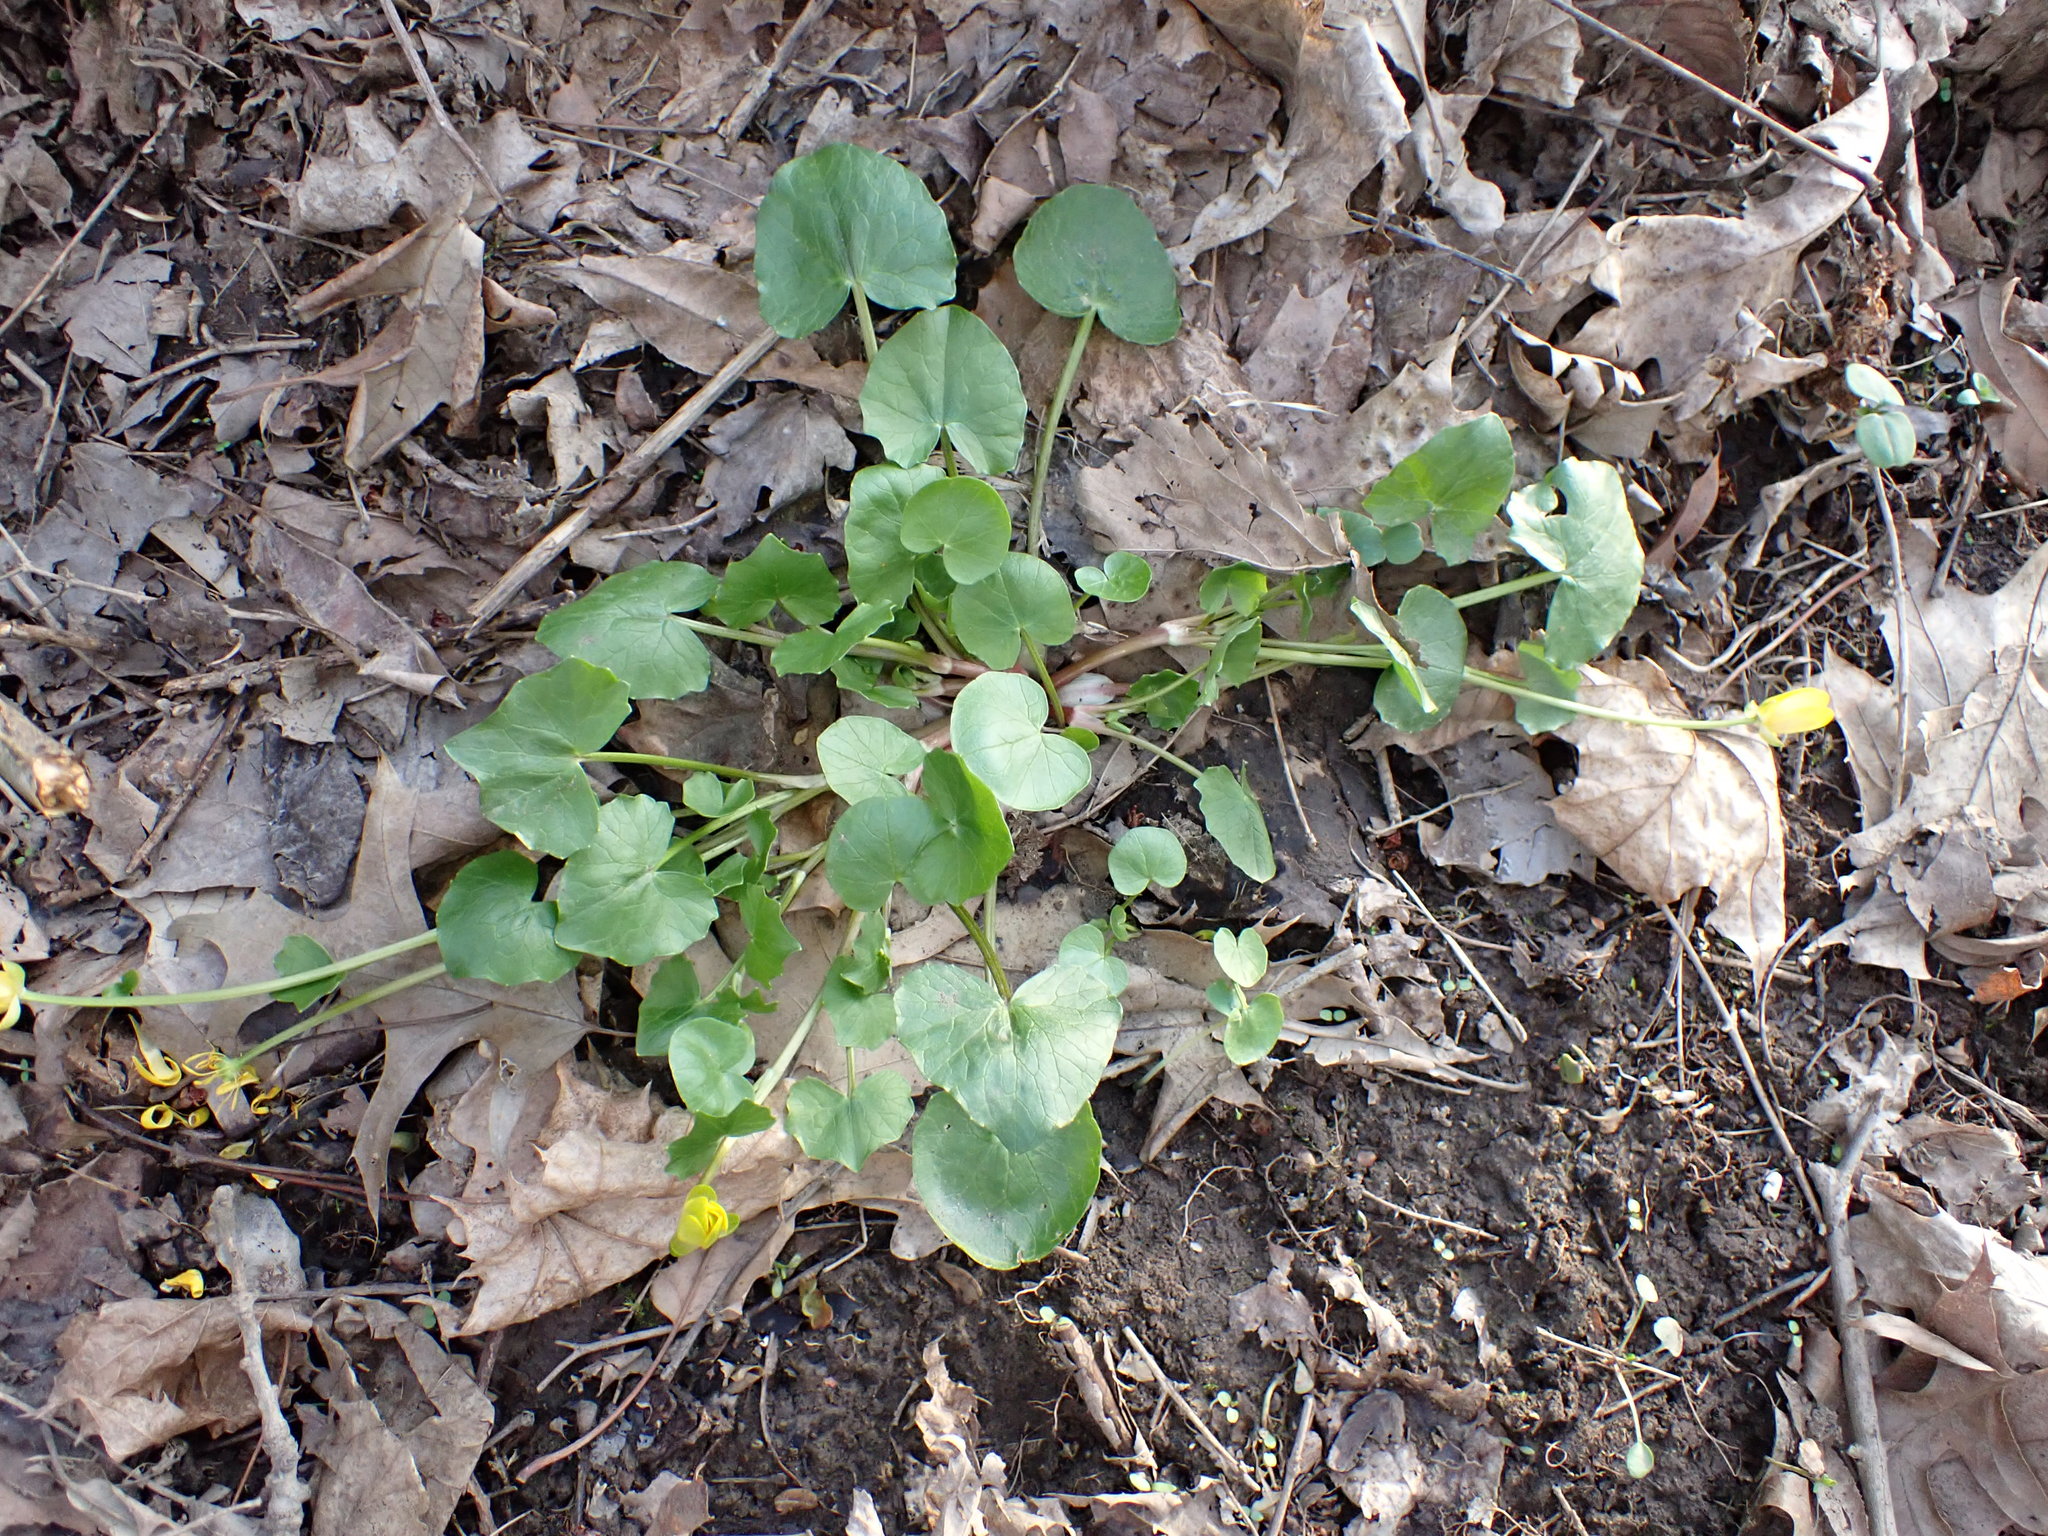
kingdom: Plantae
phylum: Tracheophyta
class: Magnoliopsida
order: Ranunculales
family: Ranunculaceae
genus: Ficaria
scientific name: Ficaria verna
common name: Lesser celandine
